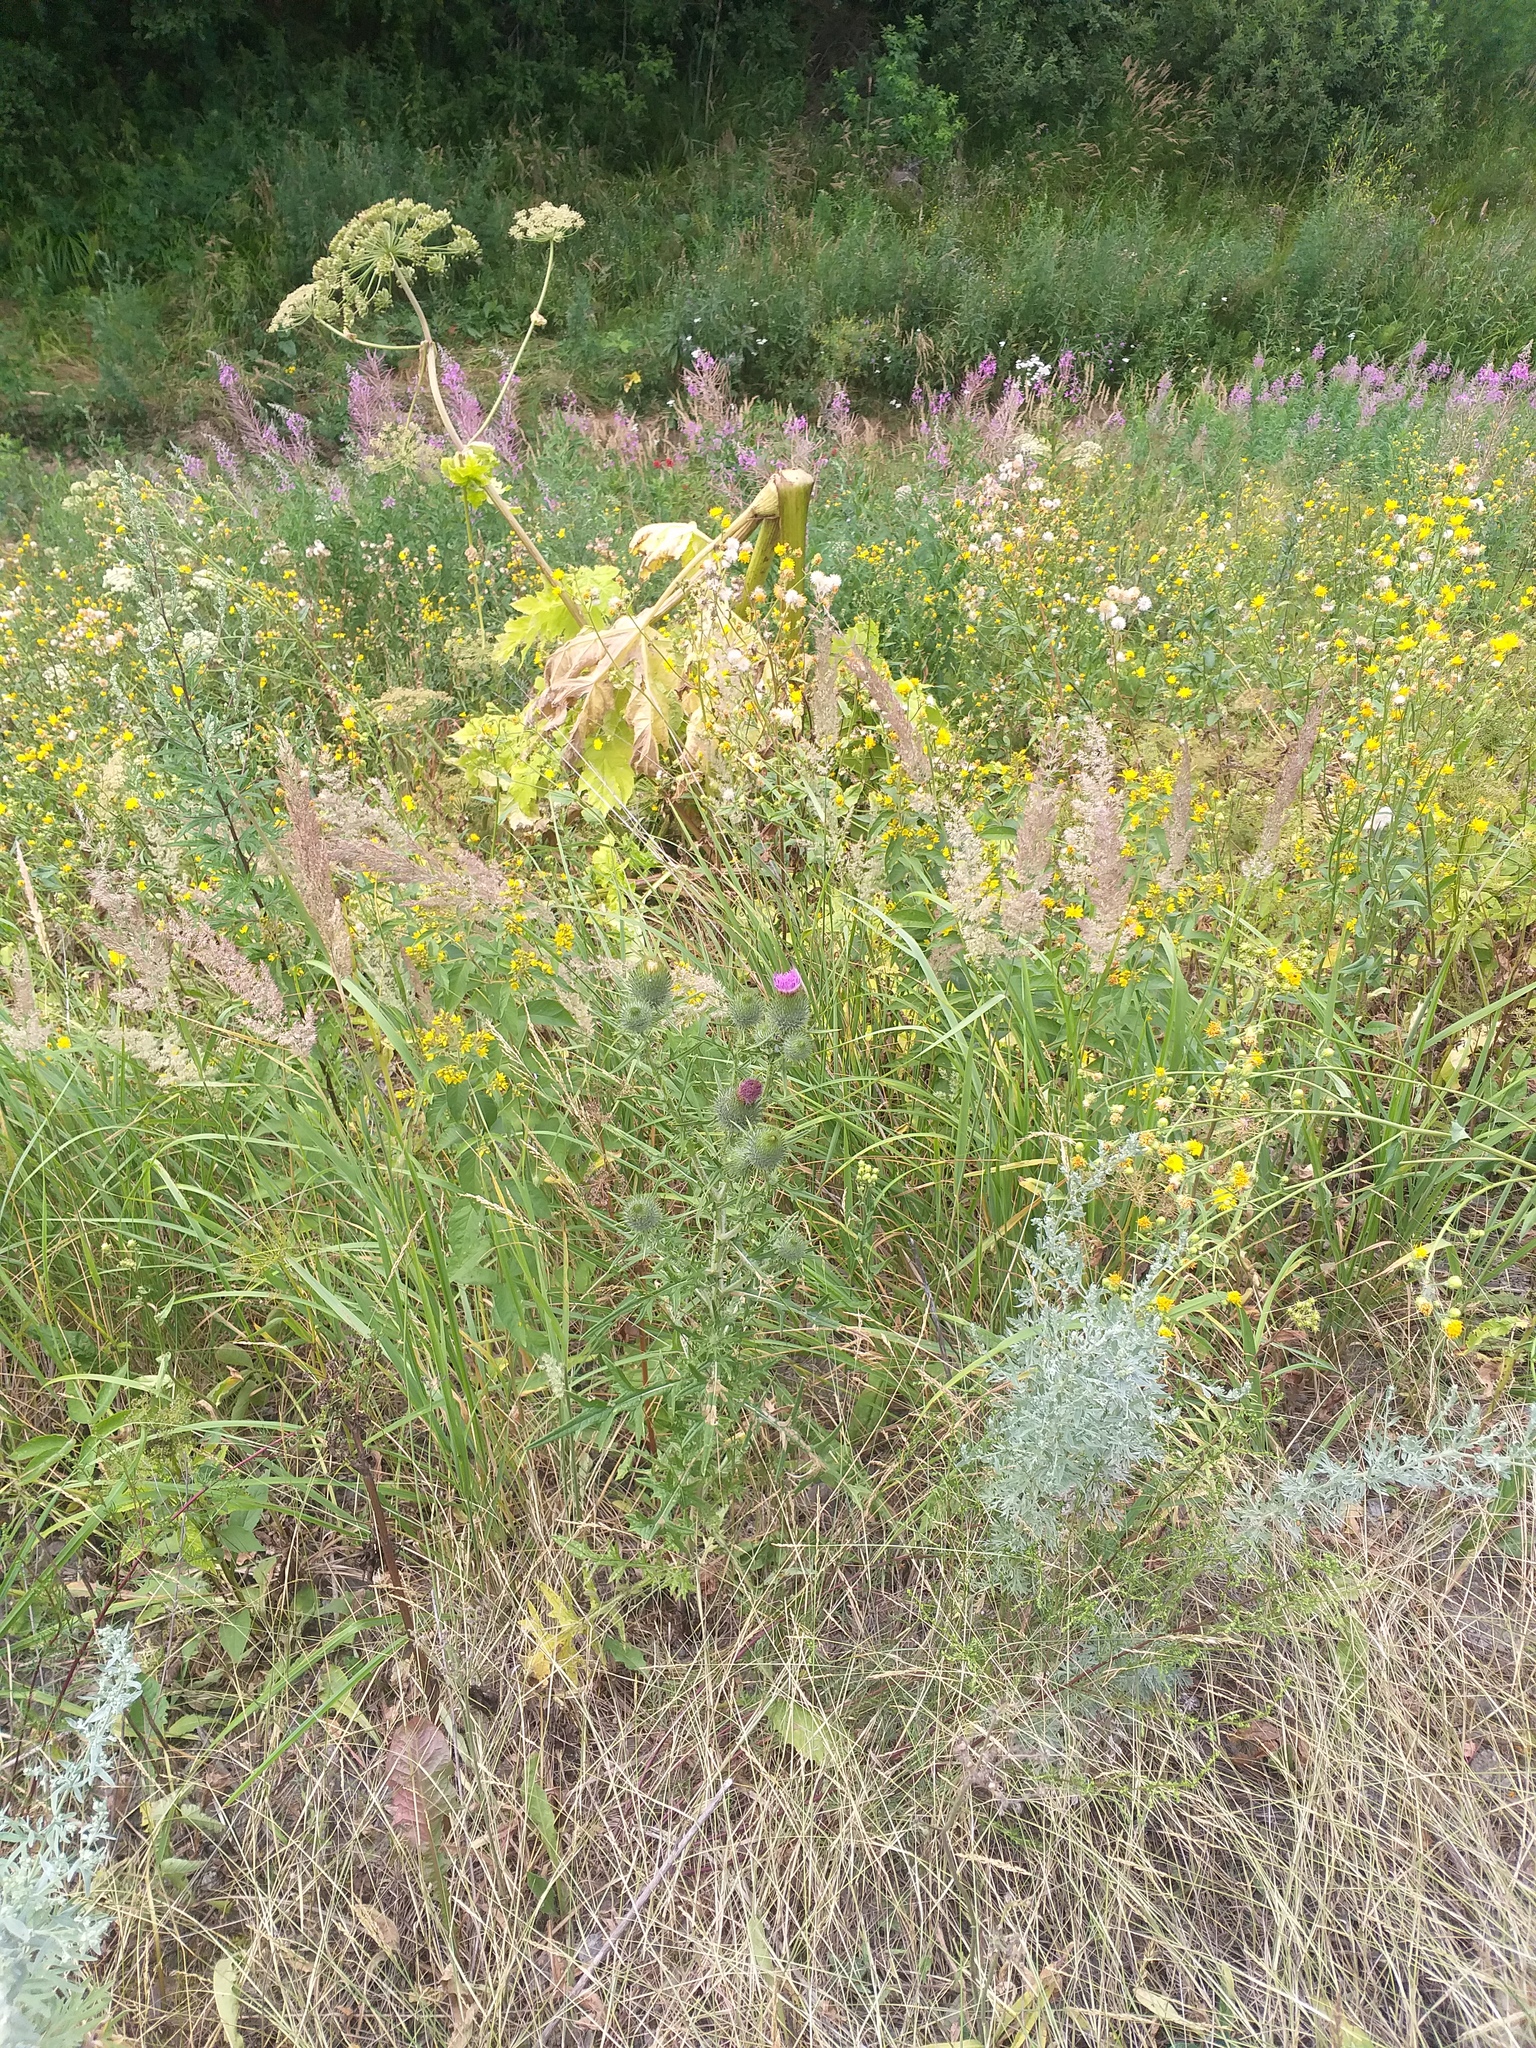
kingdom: Plantae
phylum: Tracheophyta
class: Magnoliopsida
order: Asterales
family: Asteraceae
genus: Cirsium
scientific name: Cirsium vulgare
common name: Bull thistle
